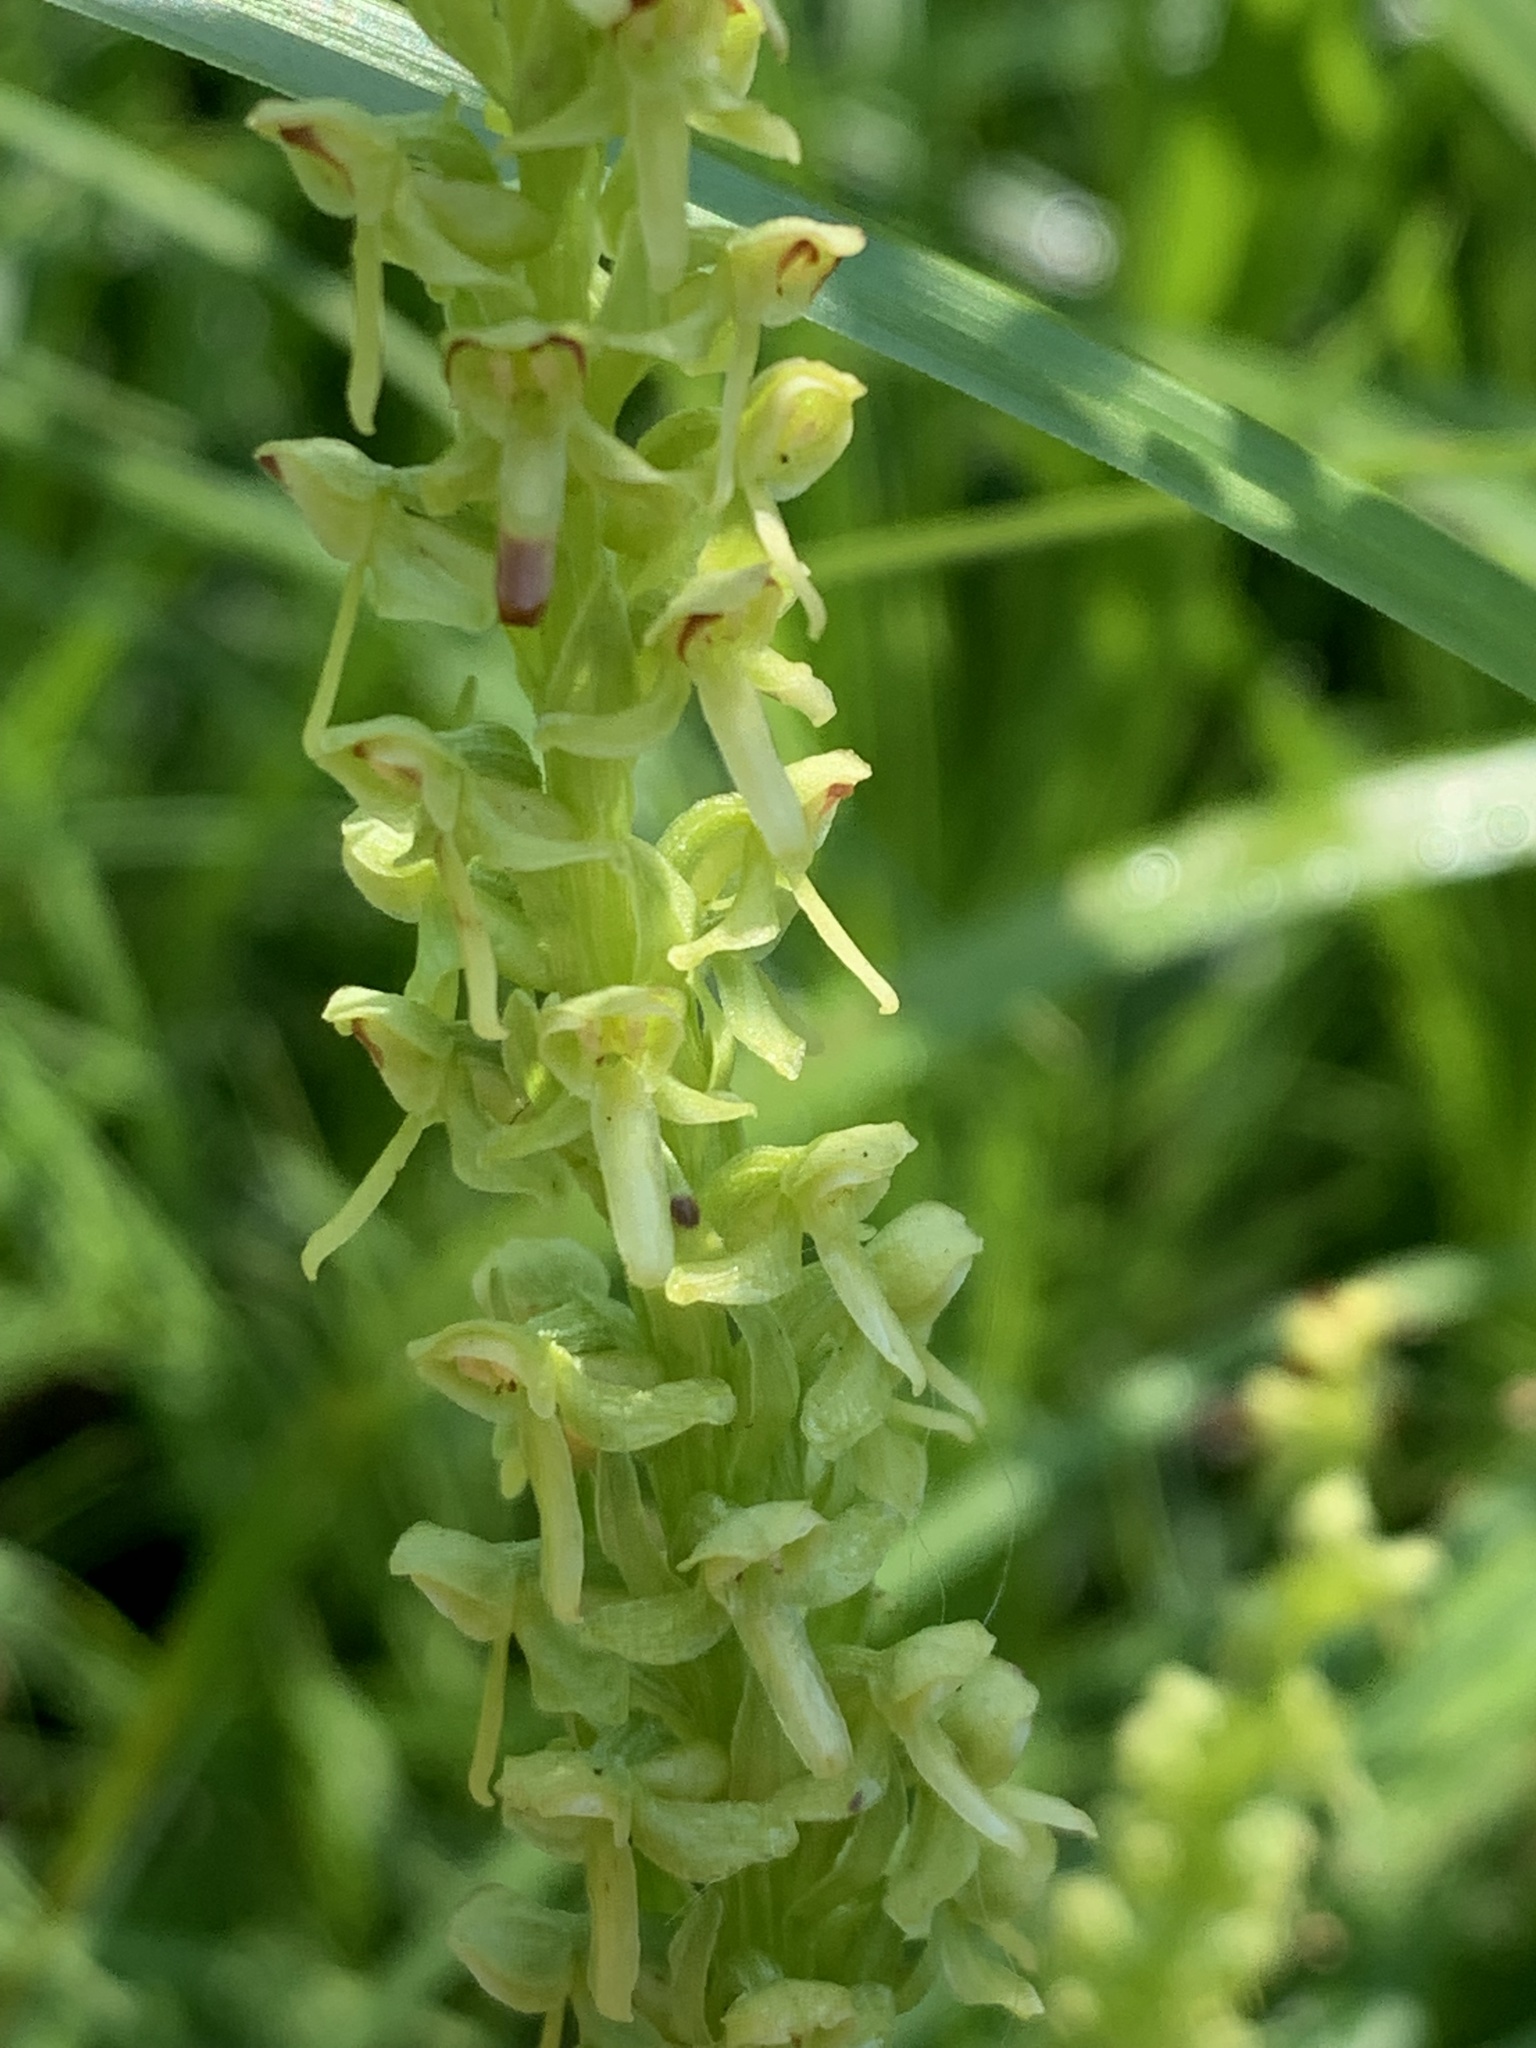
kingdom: Plantae
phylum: Tracheophyta
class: Liliopsida
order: Asparagales
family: Orchidaceae
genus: Platanthera
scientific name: Platanthera stricta
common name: Slender bog orchid
